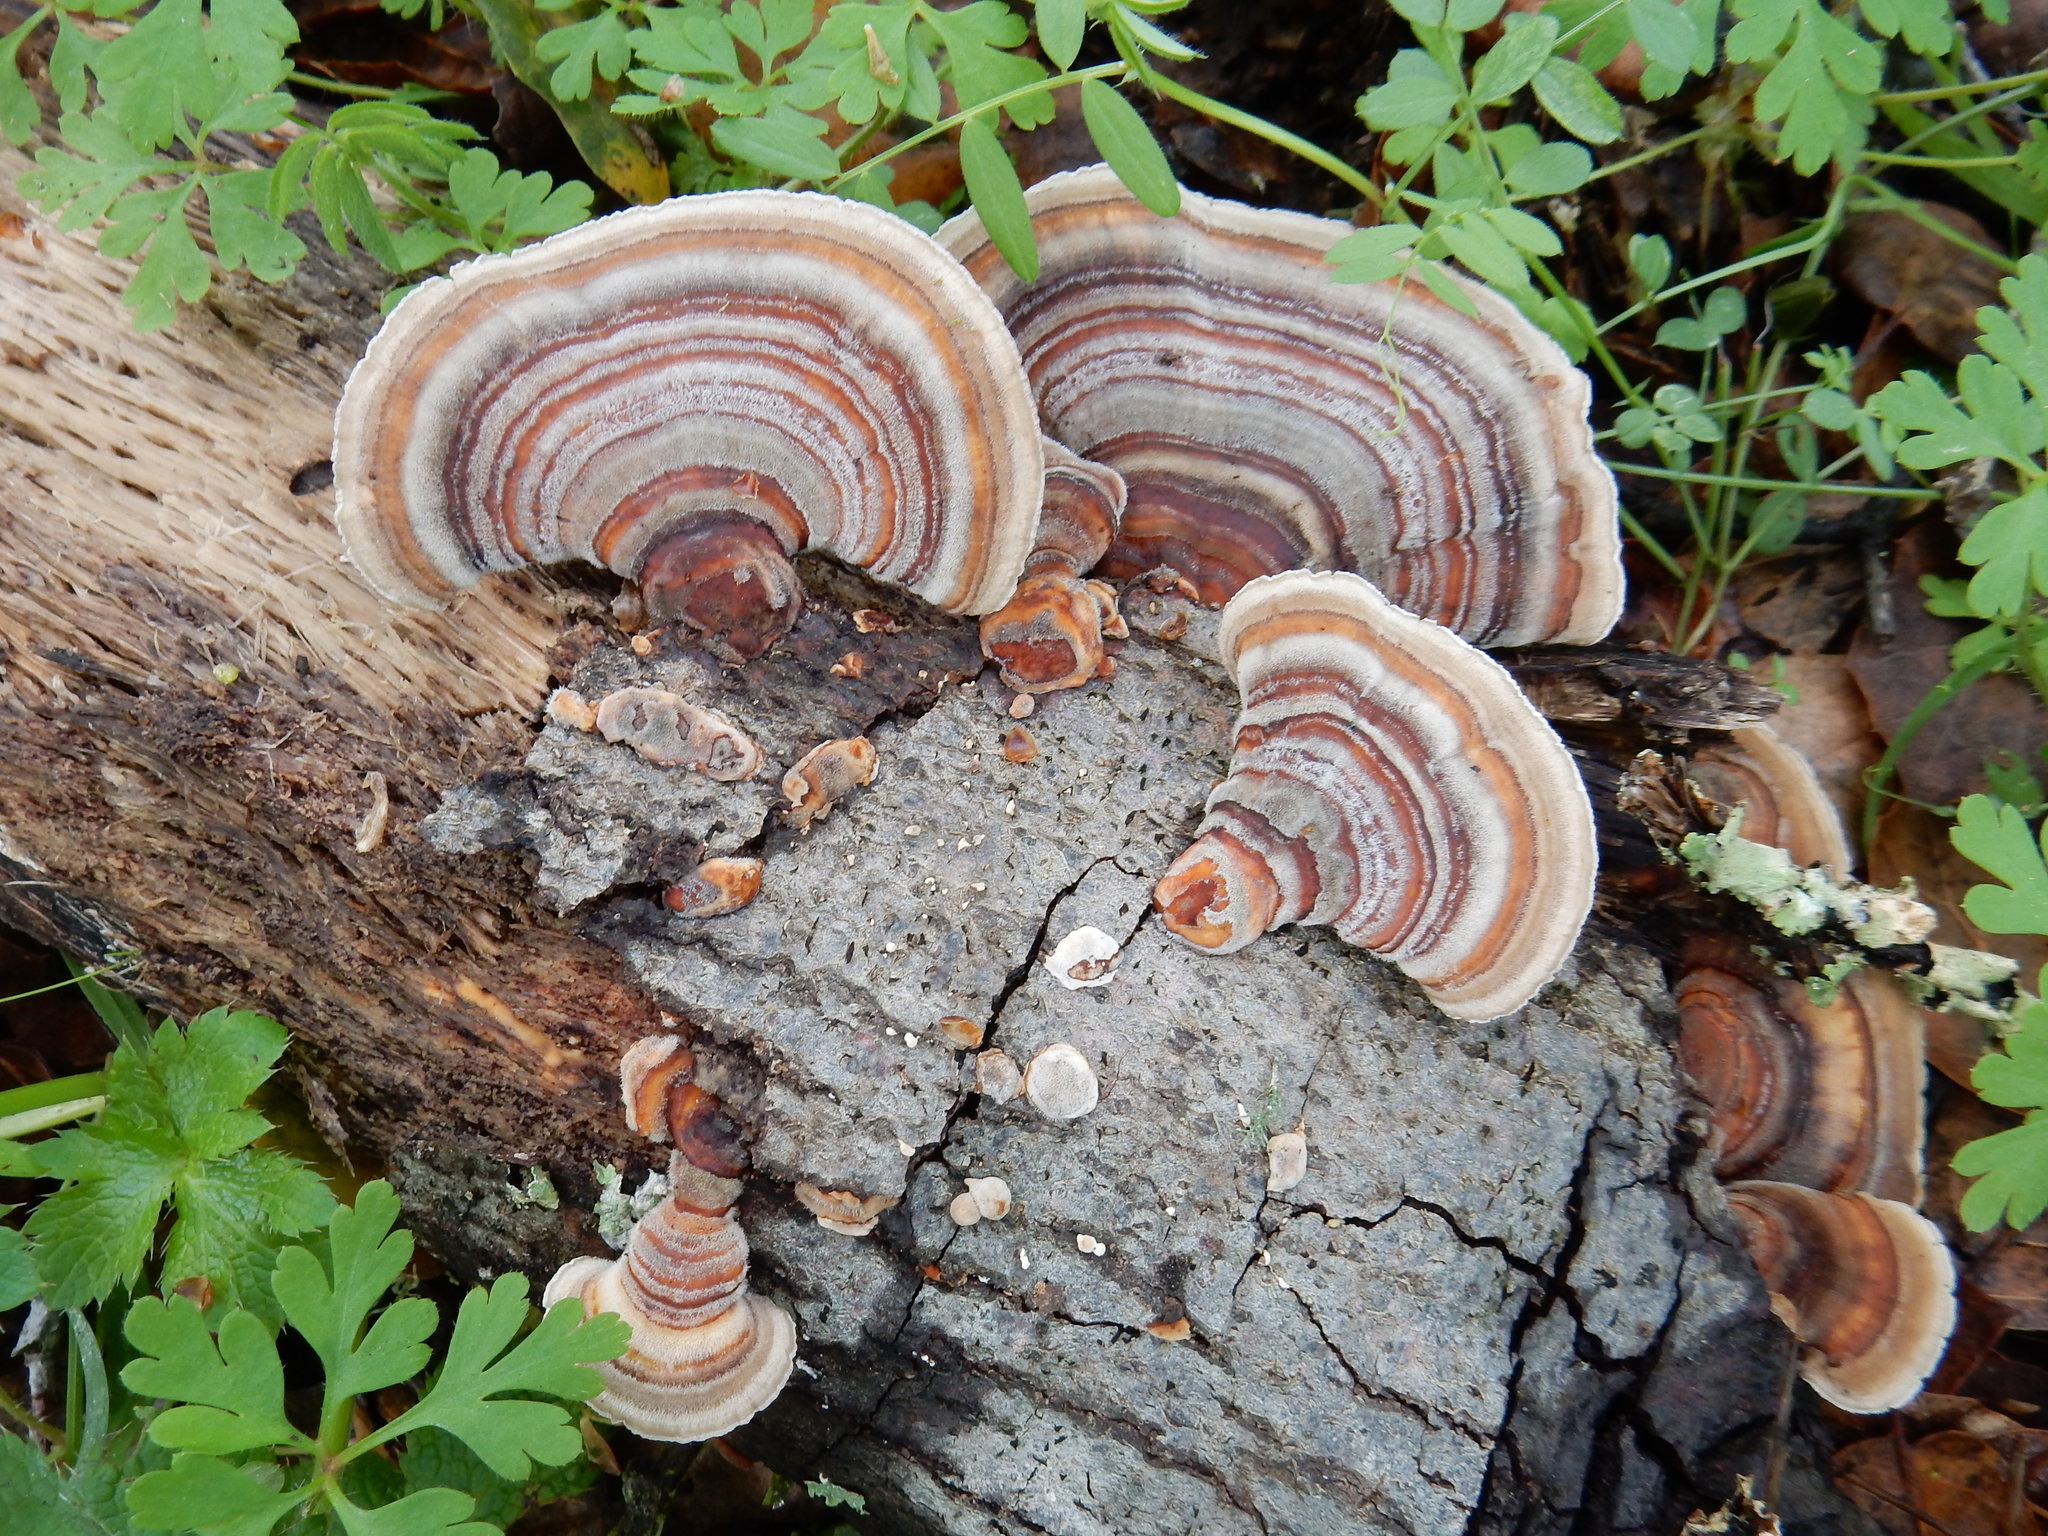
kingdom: Fungi
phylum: Basidiomycota
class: Agaricomycetes
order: Polyporales
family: Polyporaceae
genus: Trametes
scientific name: Trametes versicolor
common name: Turkeytail
